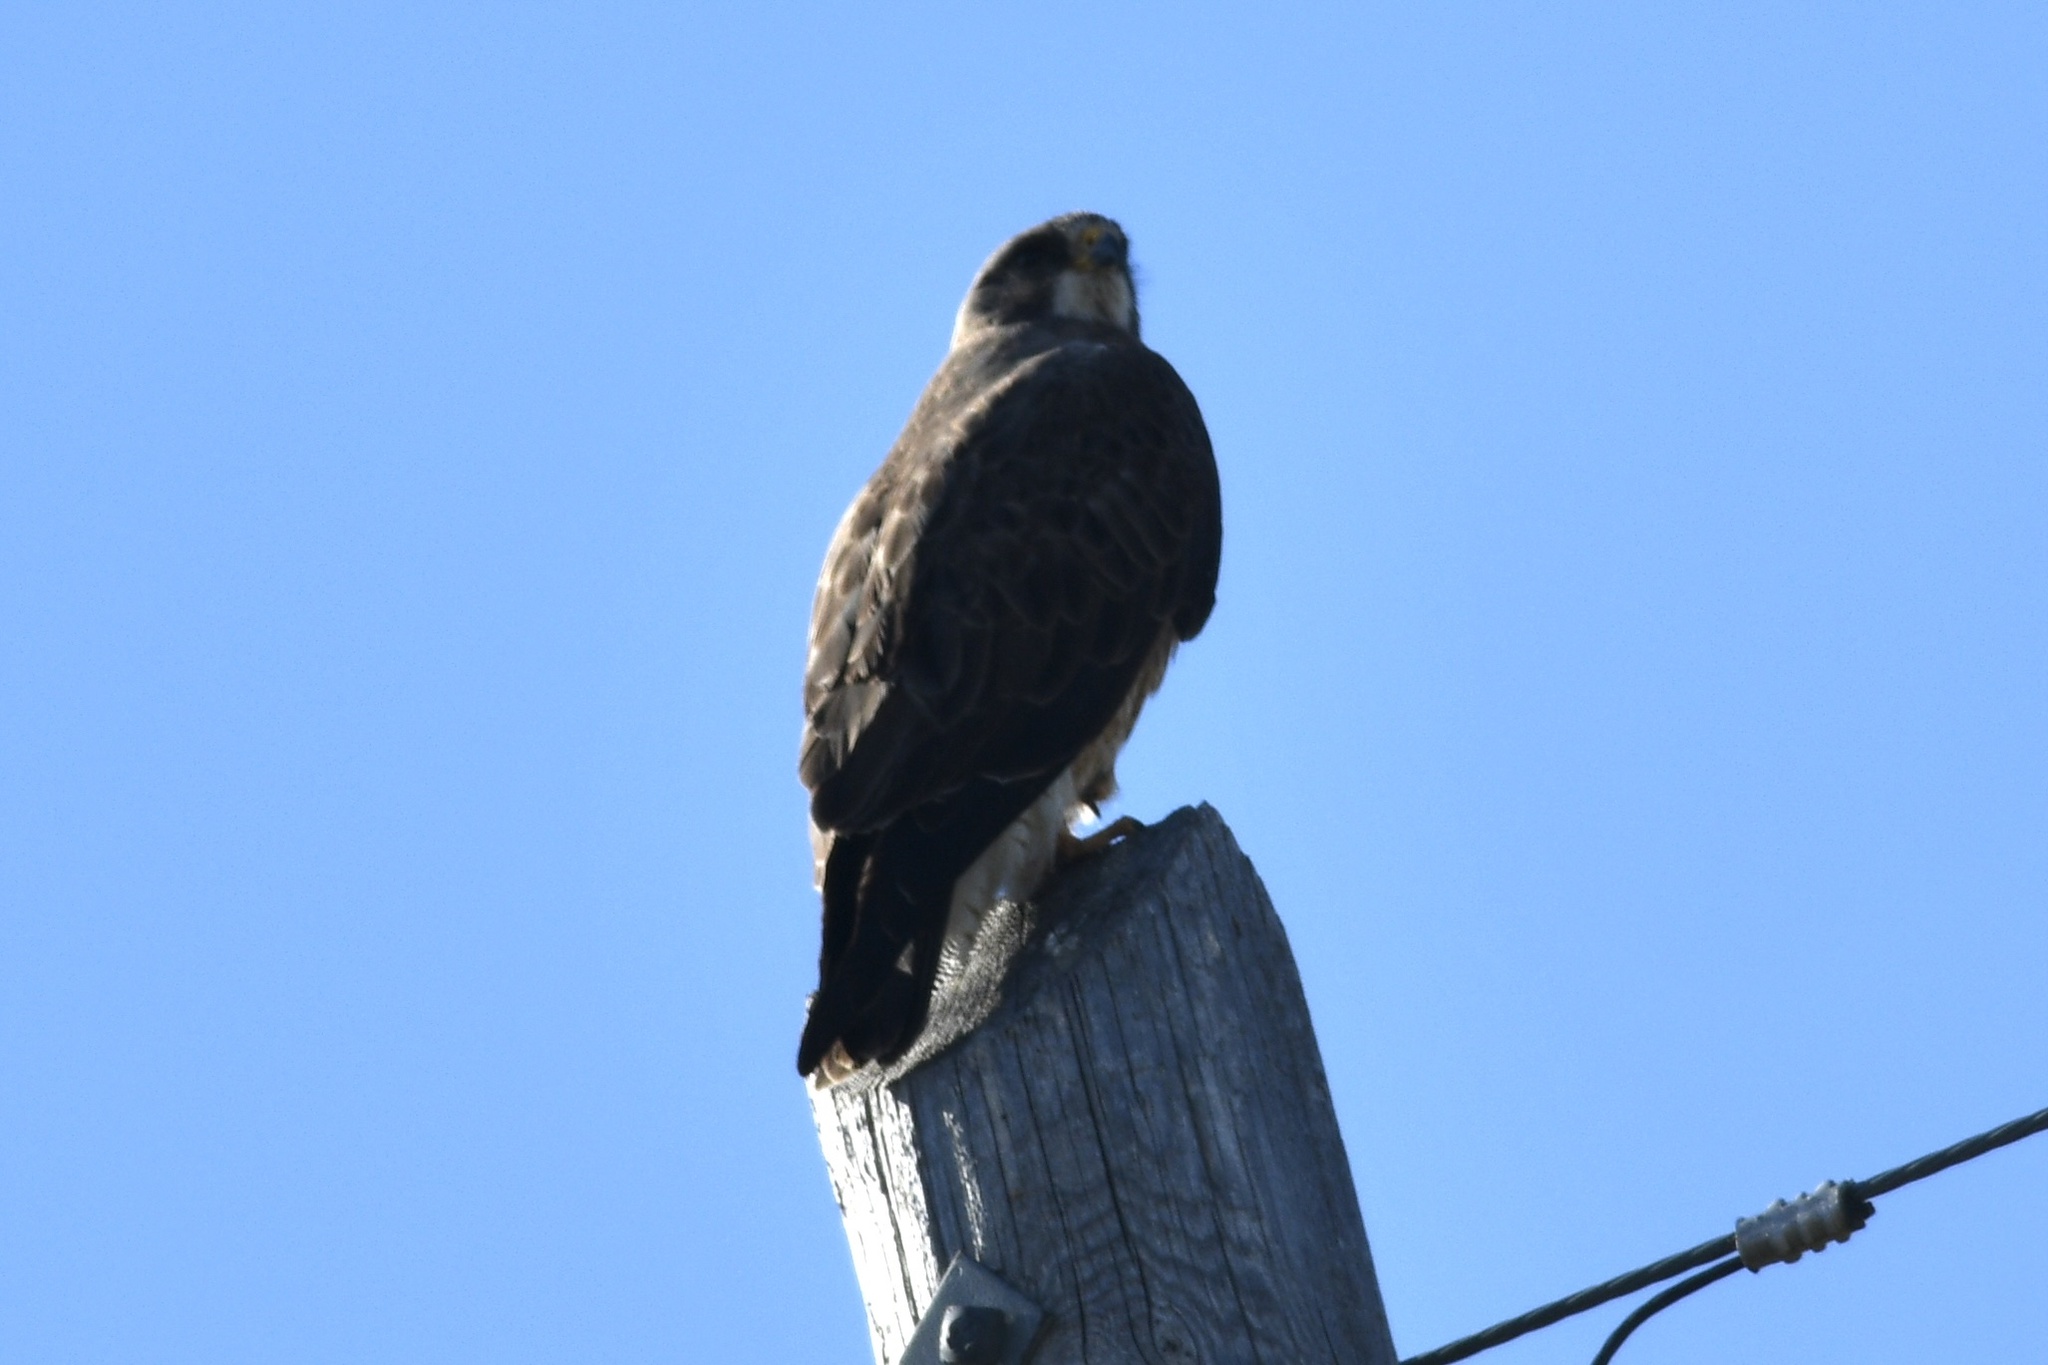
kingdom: Animalia
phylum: Chordata
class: Aves
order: Accipitriformes
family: Accipitridae
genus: Buteo
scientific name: Buteo swainsoni
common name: Swainson's hawk
